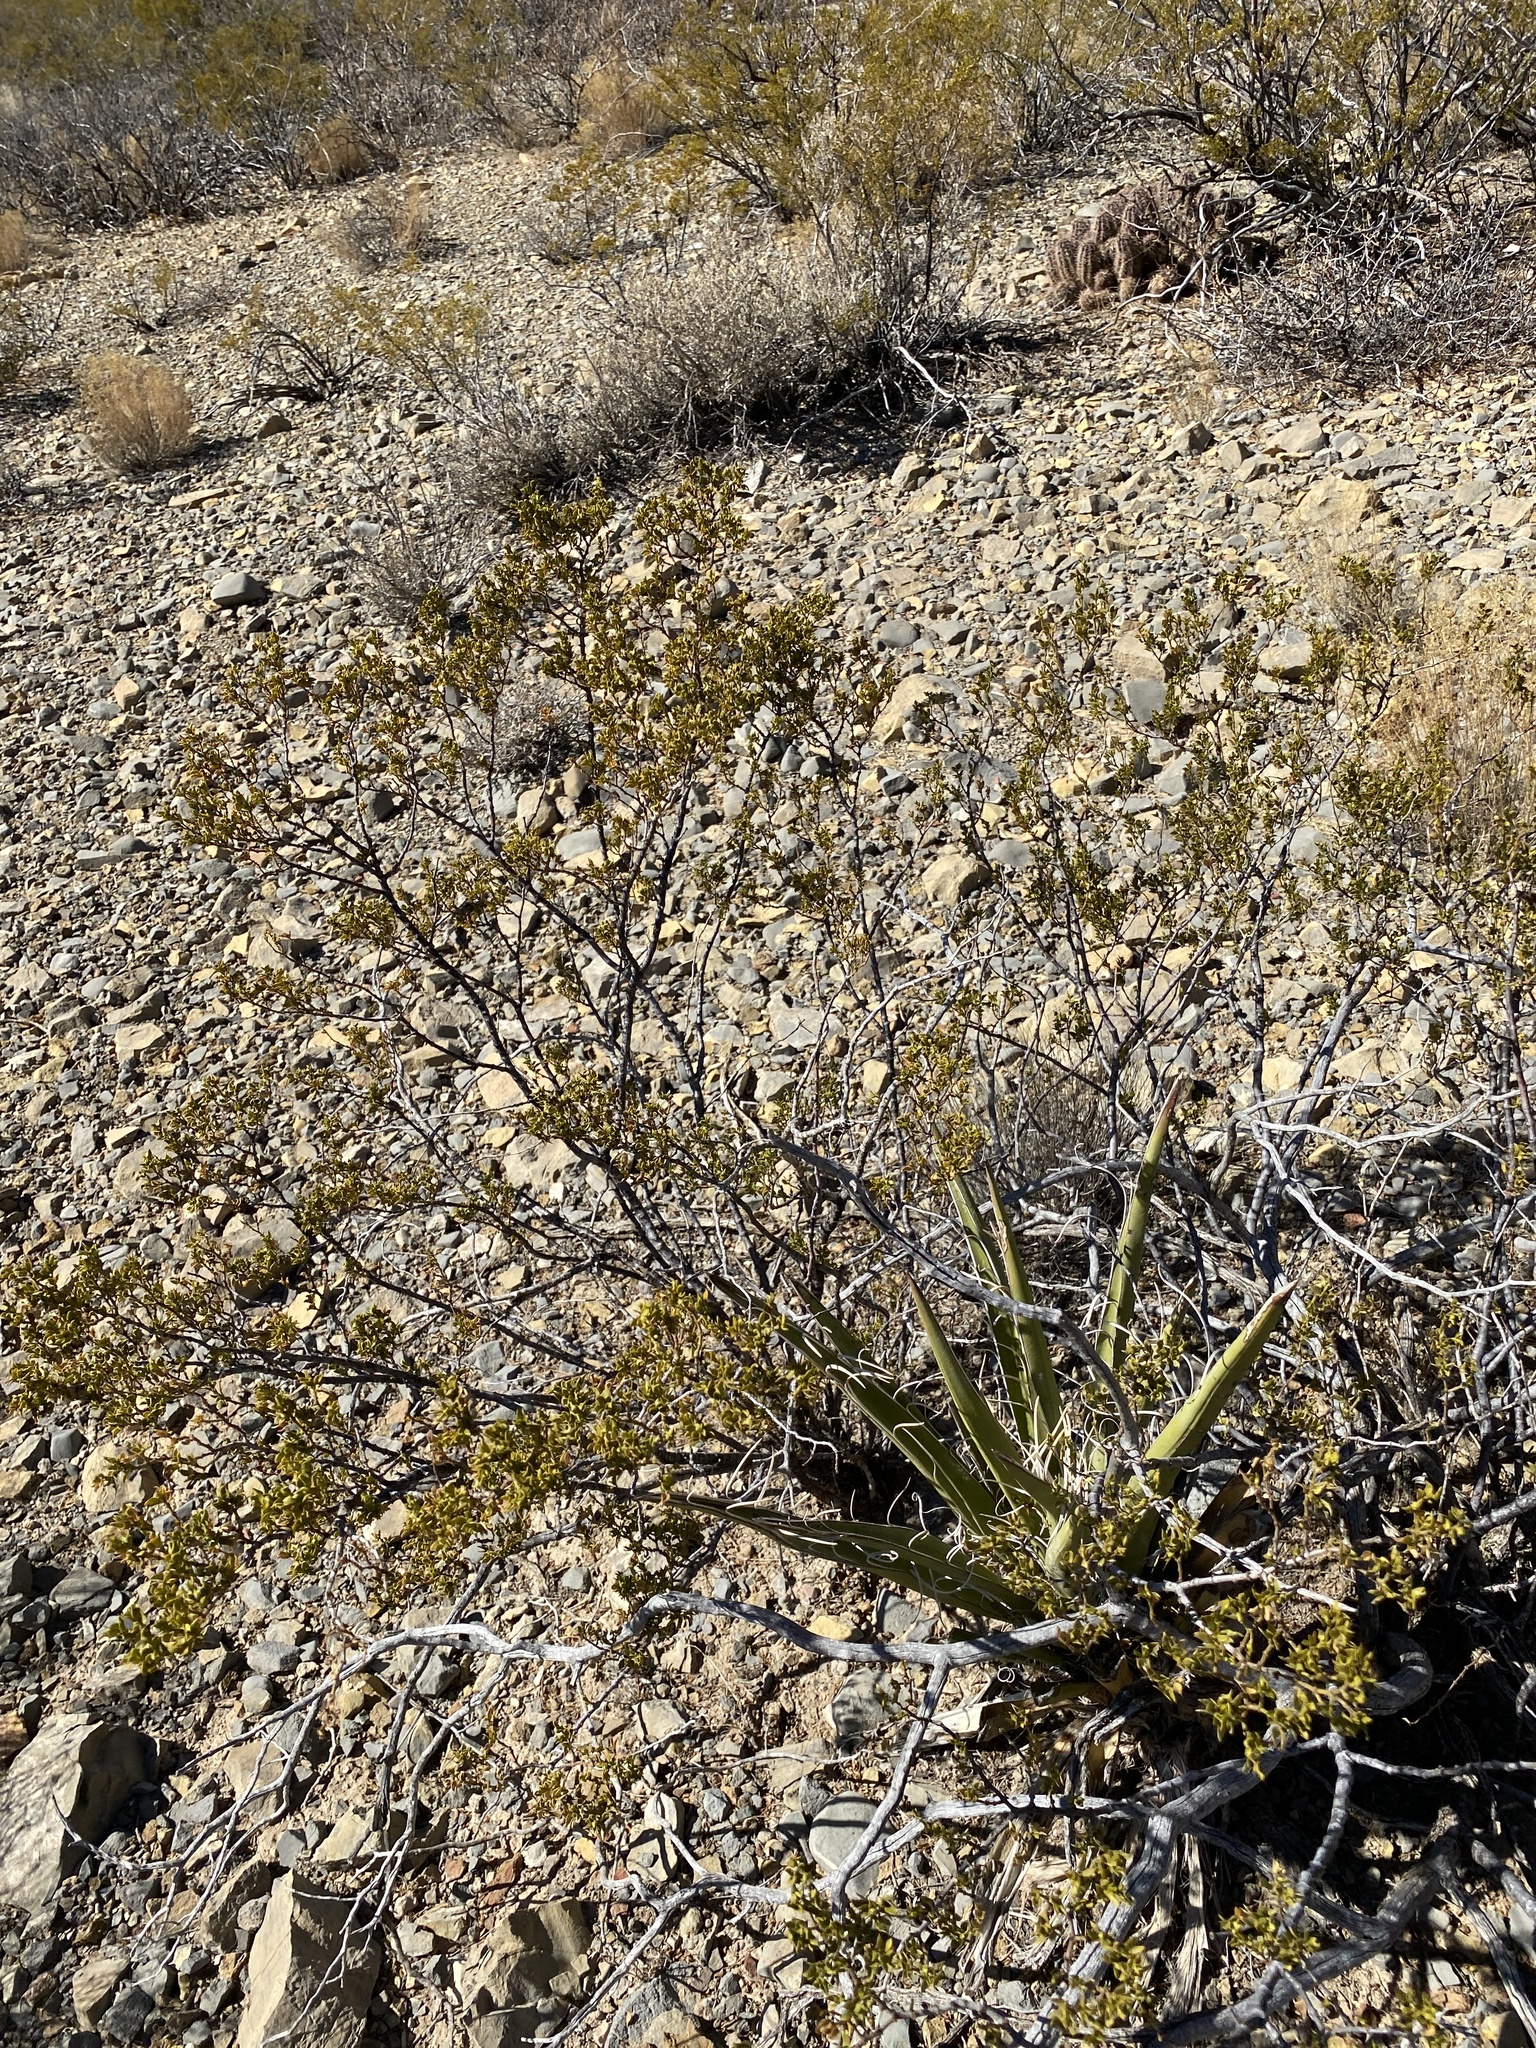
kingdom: Plantae
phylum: Tracheophyta
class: Magnoliopsida
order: Zygophyllales
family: Zygophyllaceae
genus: Larrea
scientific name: Larrea tridentata
